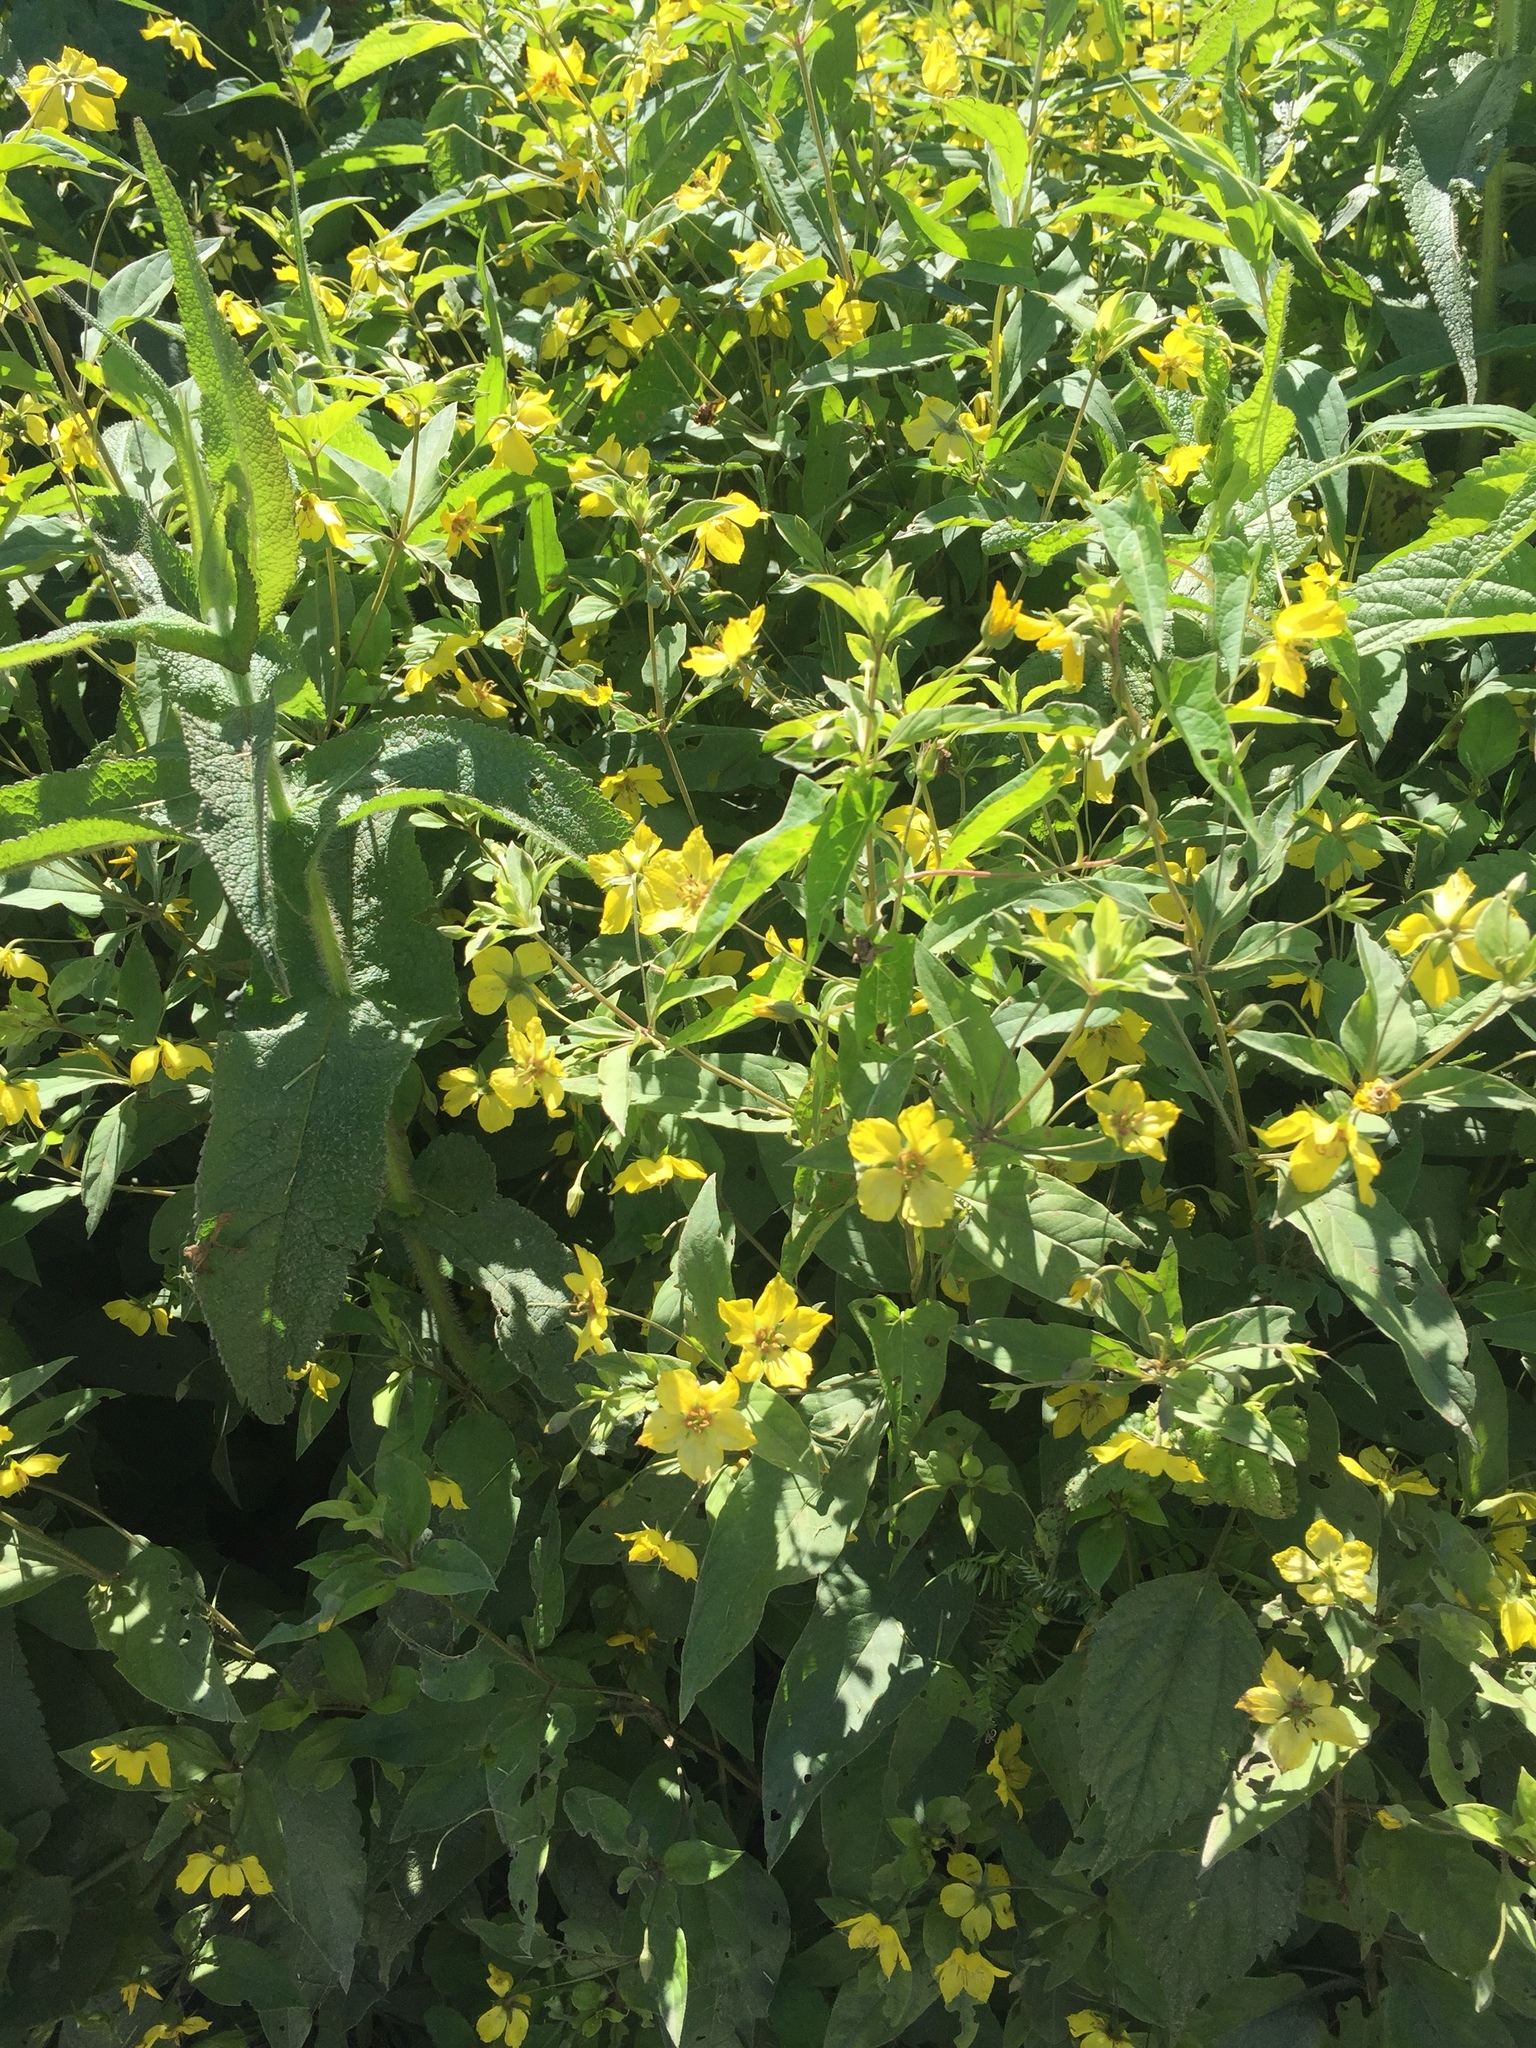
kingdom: Plantae
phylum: Tracheophyta
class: Magnoliopsida
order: Ericales
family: Primulaceae
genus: Lysimachia
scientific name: Lysimachia ciliata
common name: Fringed loosestrife
